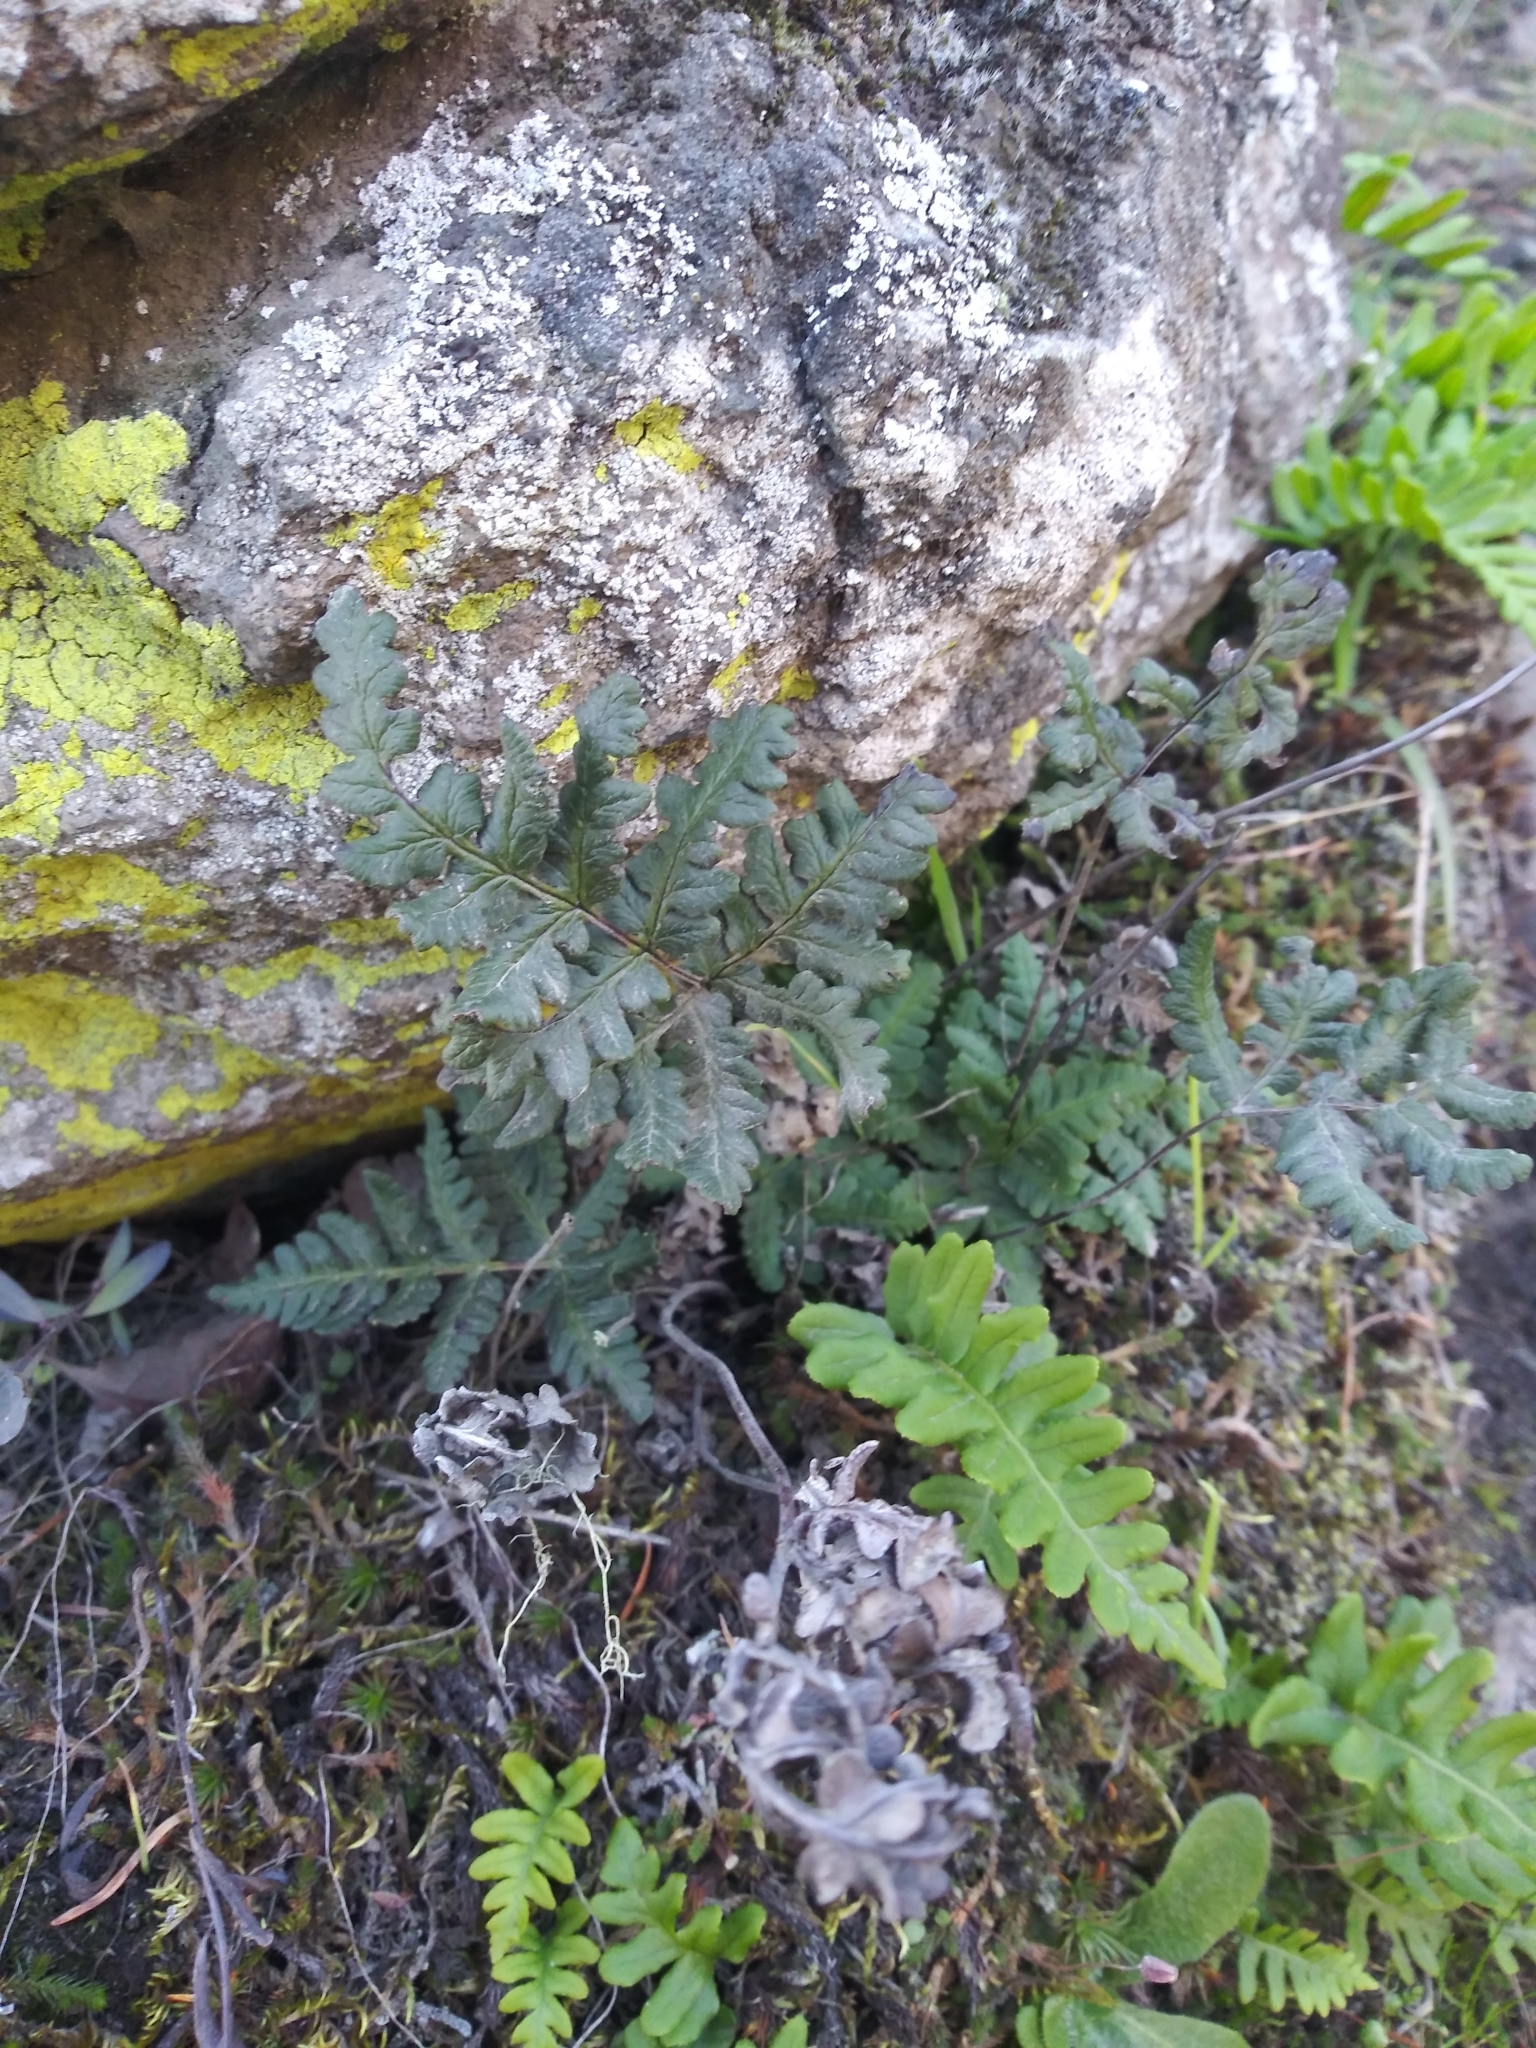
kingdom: Plantae
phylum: Tracheophyta
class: Polypodiopsida
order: Polypodiales
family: Pteridaceae
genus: Pentagramma
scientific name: Pentagramma triangularis
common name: Gold fern
